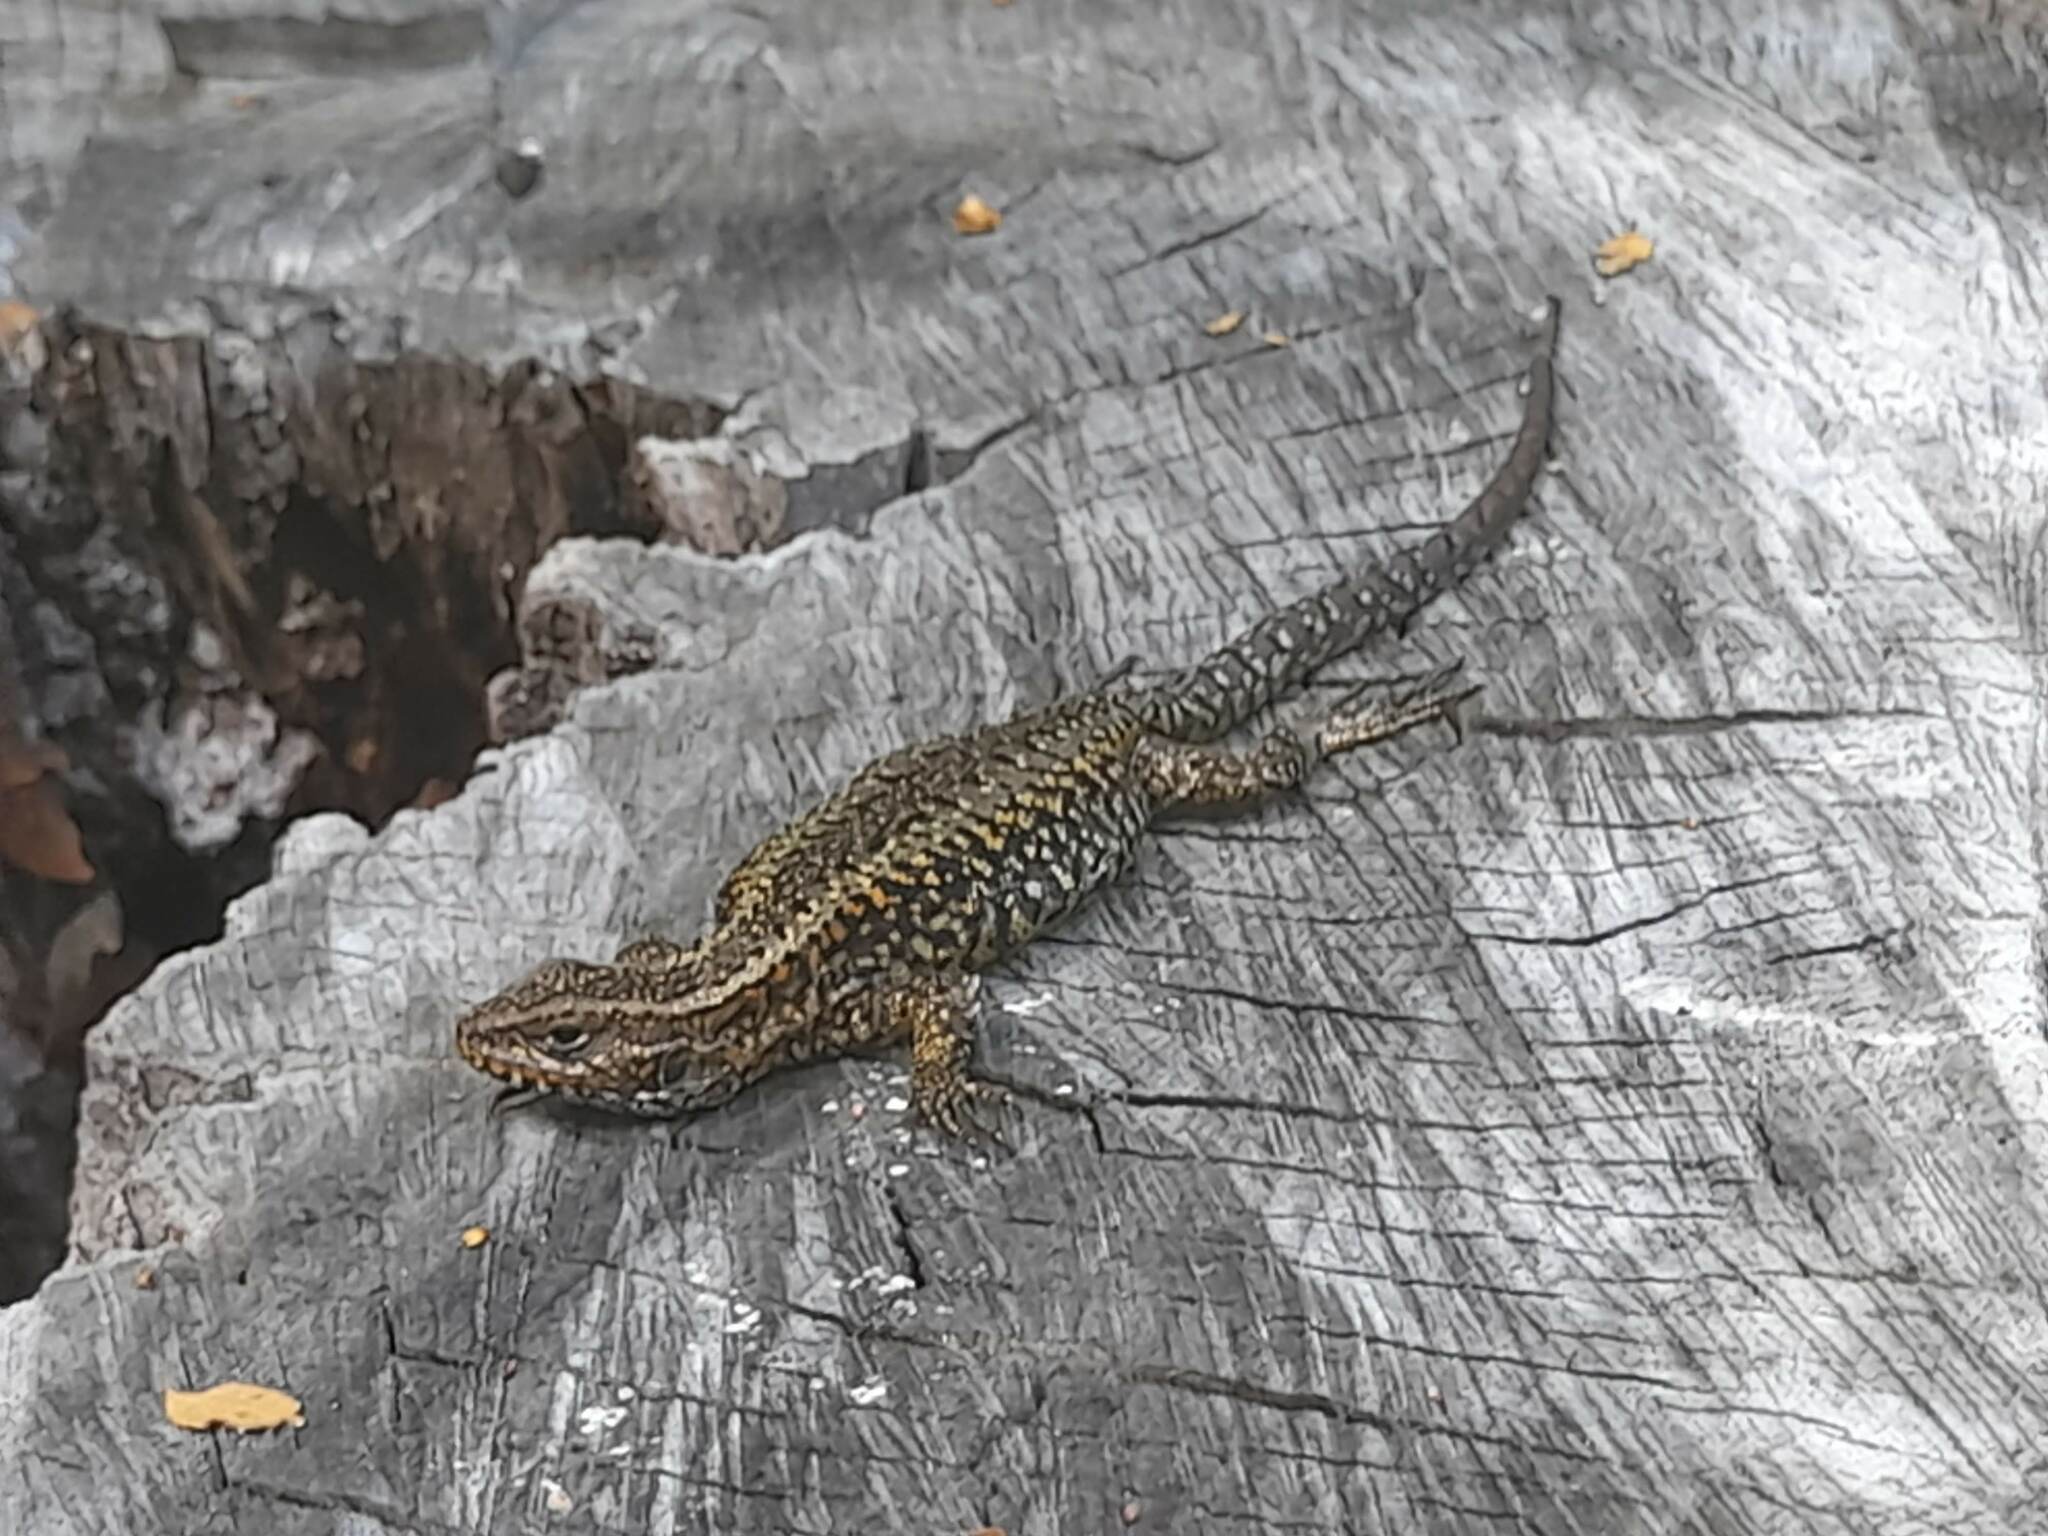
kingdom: Animalia
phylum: Chordata
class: Squamata
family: Liolaemidae
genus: Liolaemus
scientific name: Liolaemus pictus
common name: Painted tree iguana
